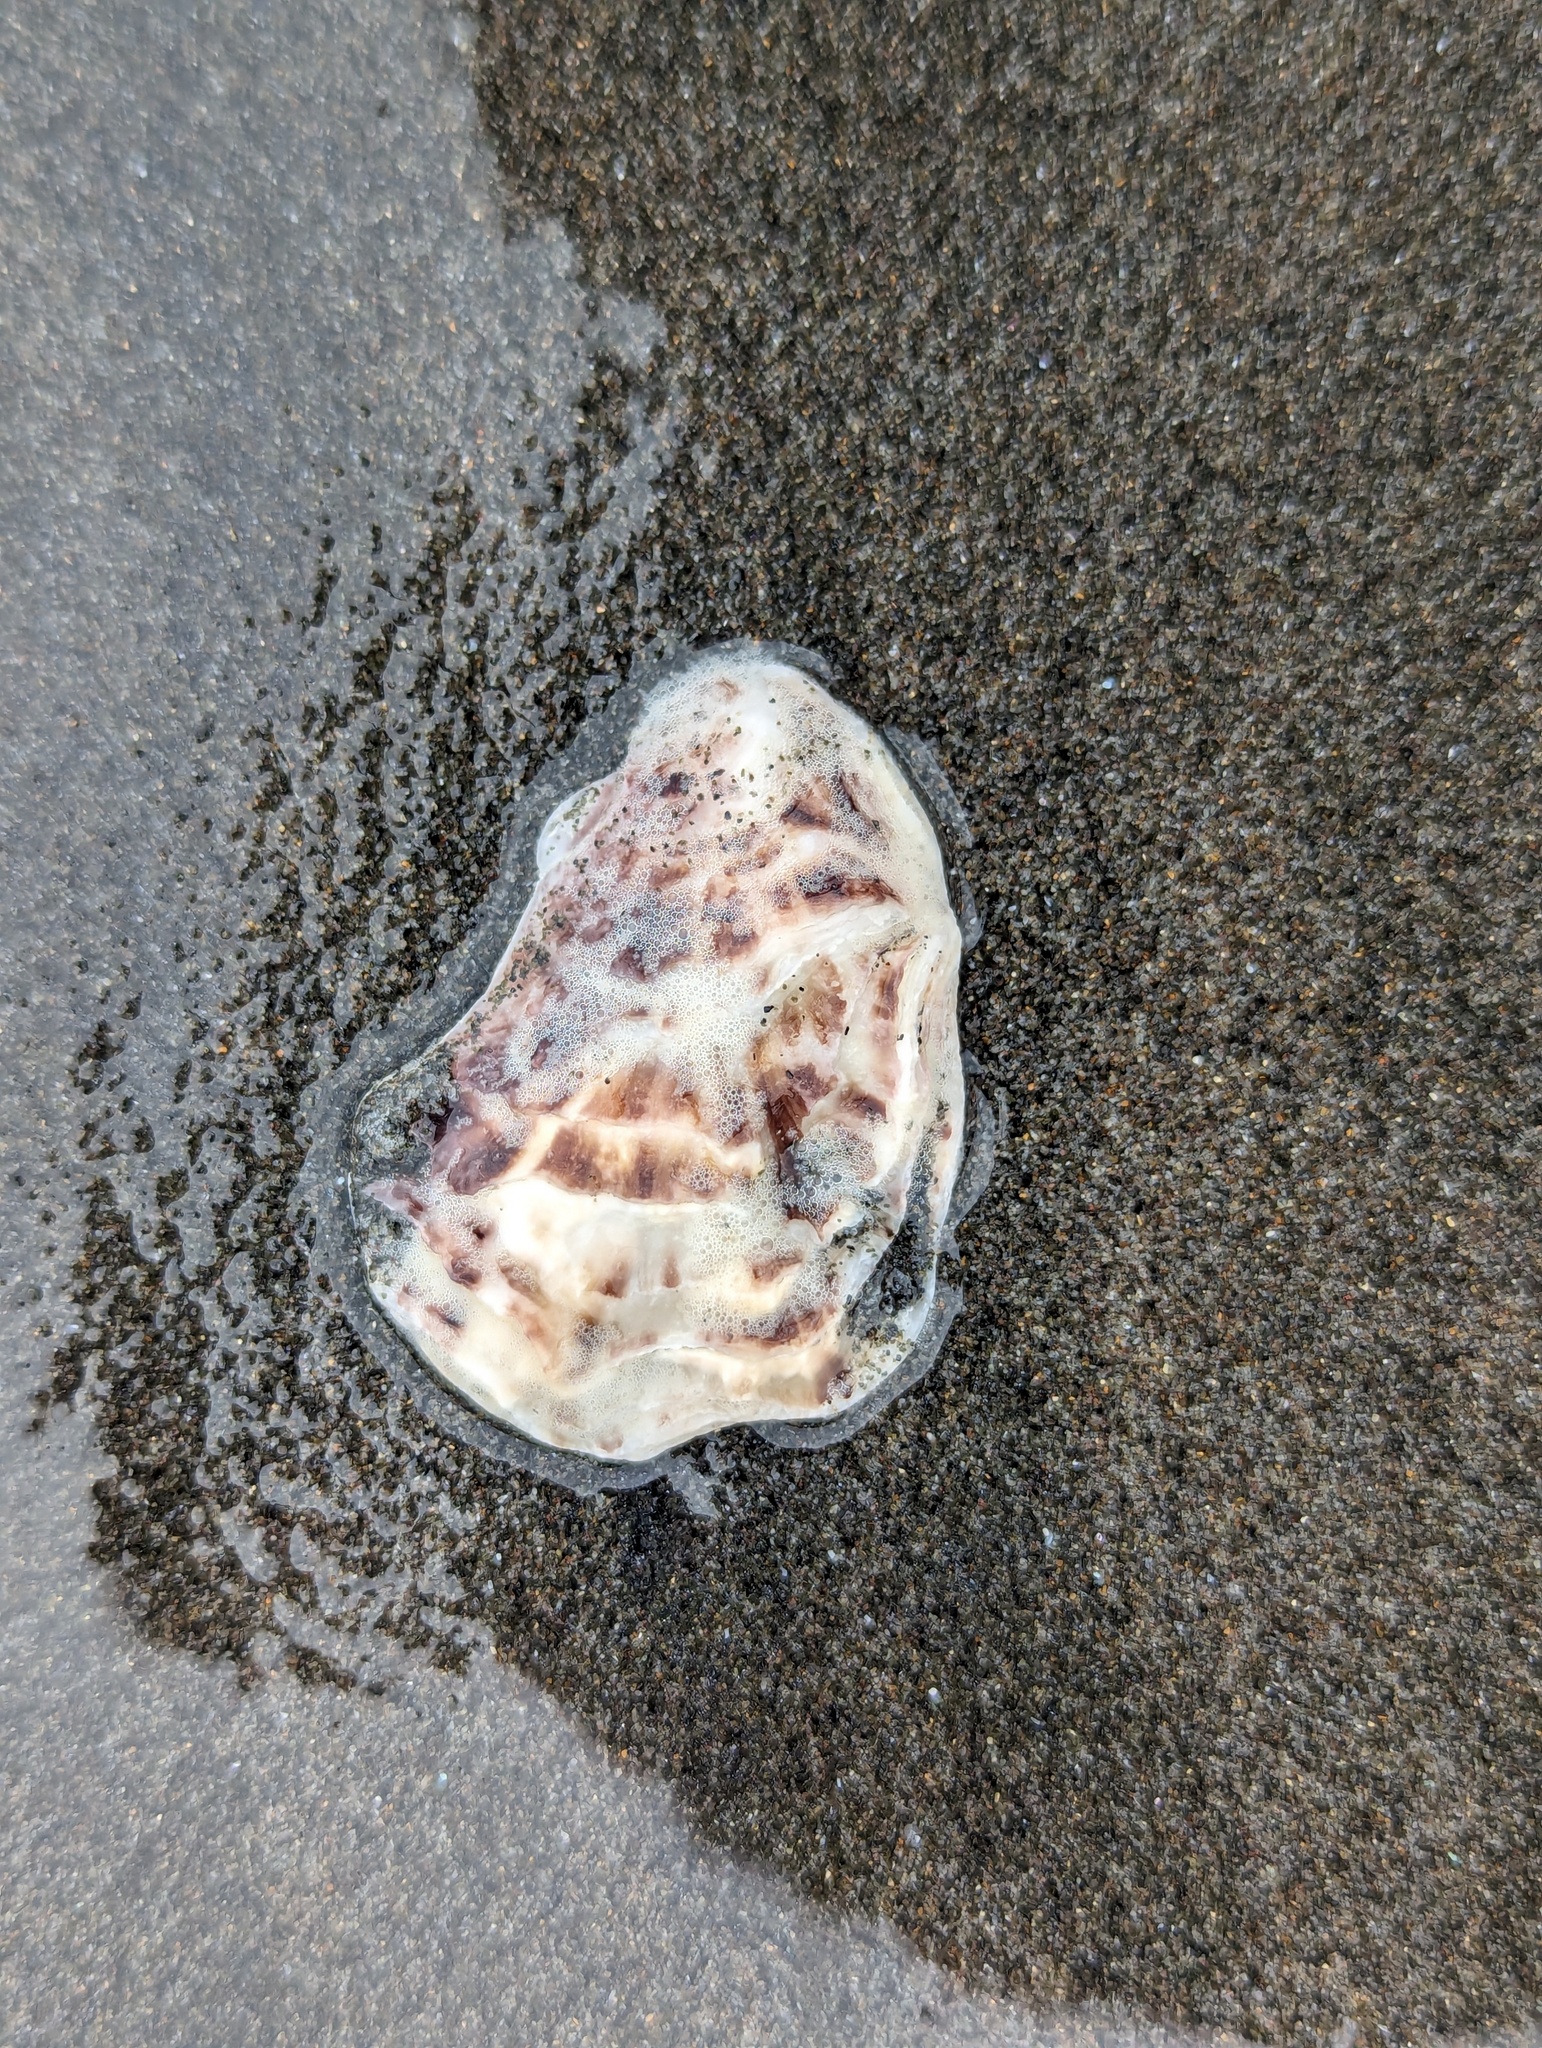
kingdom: Animalia
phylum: Mollusca
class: Bivalvia
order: Ostreida
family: Ostreidae
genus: Magallana
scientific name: Magallana gigas
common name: Pacific oyster
